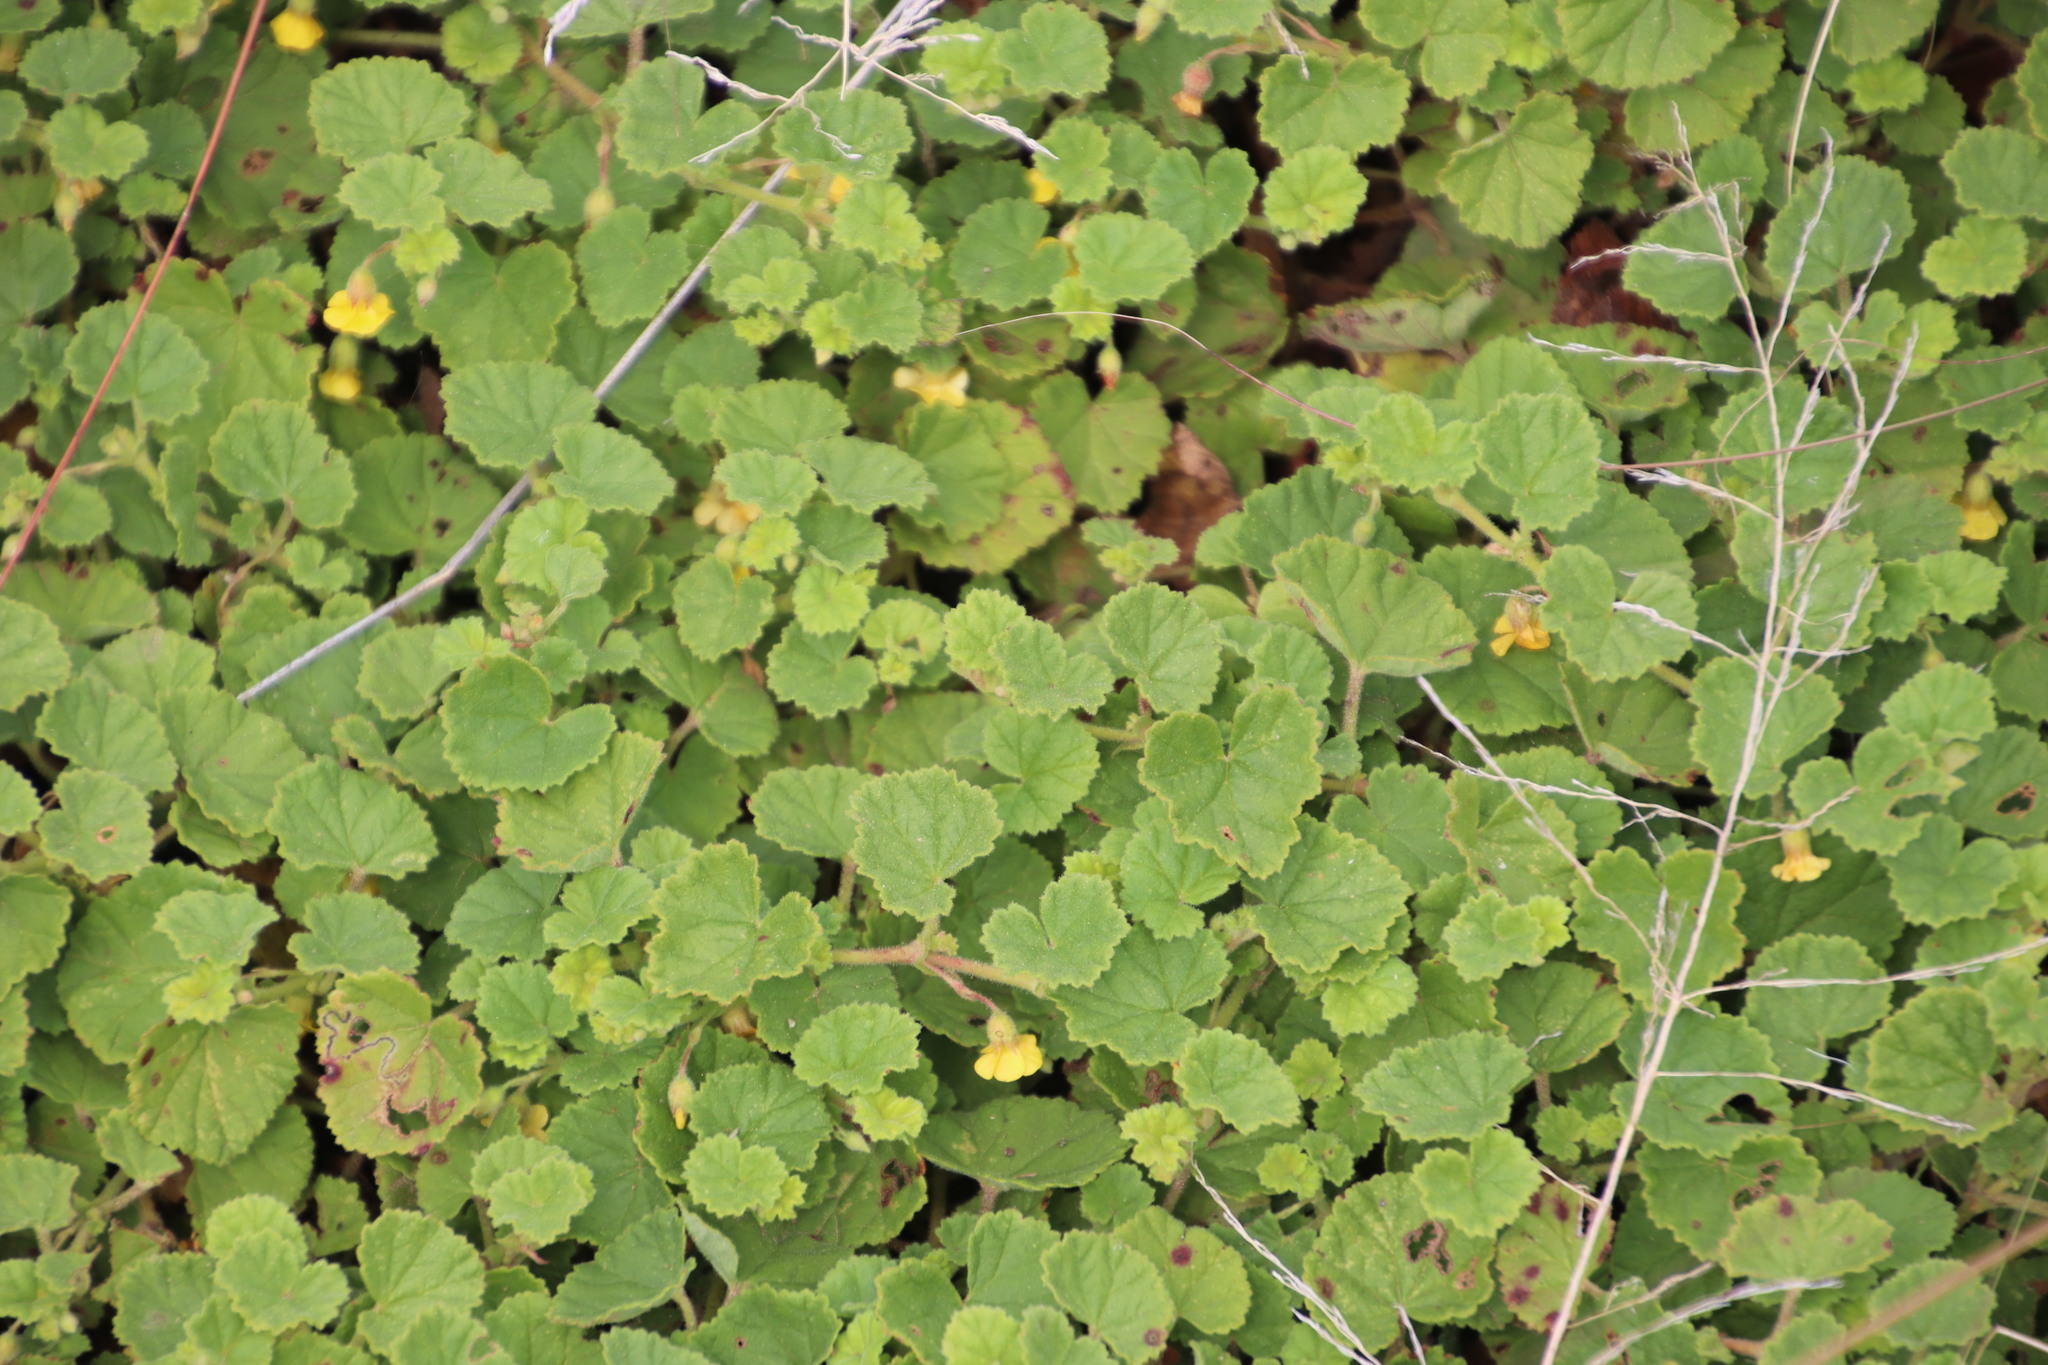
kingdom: Plantae
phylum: Tracheophyta
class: Magnoliopsida
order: Malvales
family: Malvaceae
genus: Hermannia
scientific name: Hermannia malvifolia
